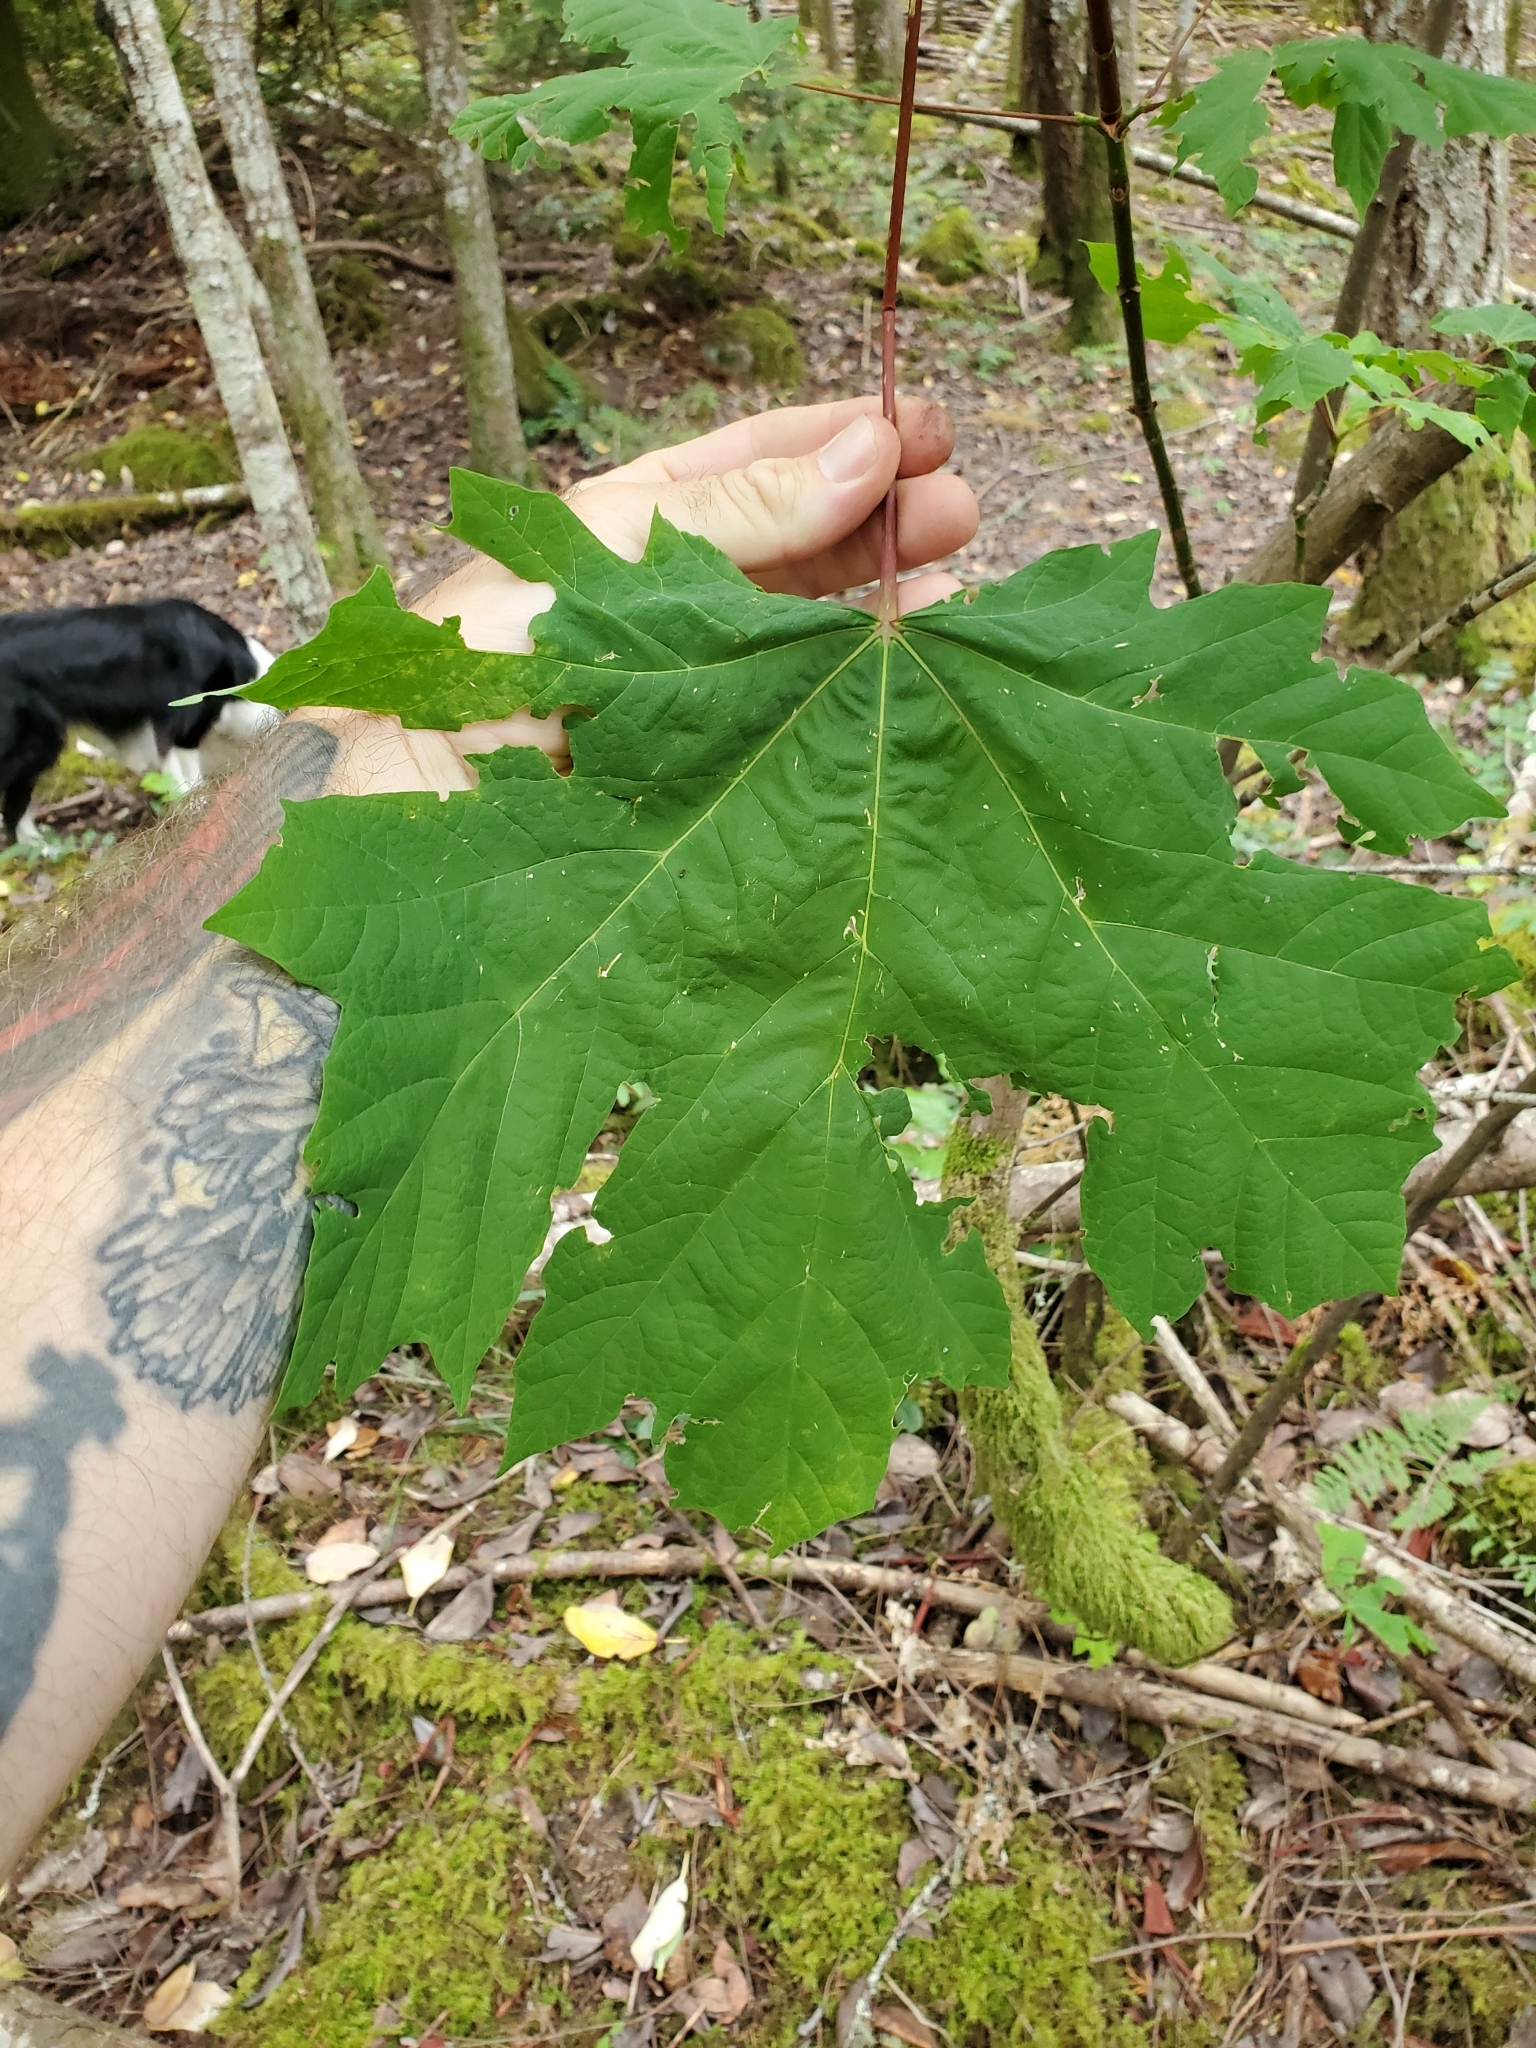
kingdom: Plantae
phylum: Tracheophyta
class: Magnoliopsida
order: Sapindales
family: Sapindaceae
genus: Acer
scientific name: Acer macrophyllum
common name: Oregon maple
